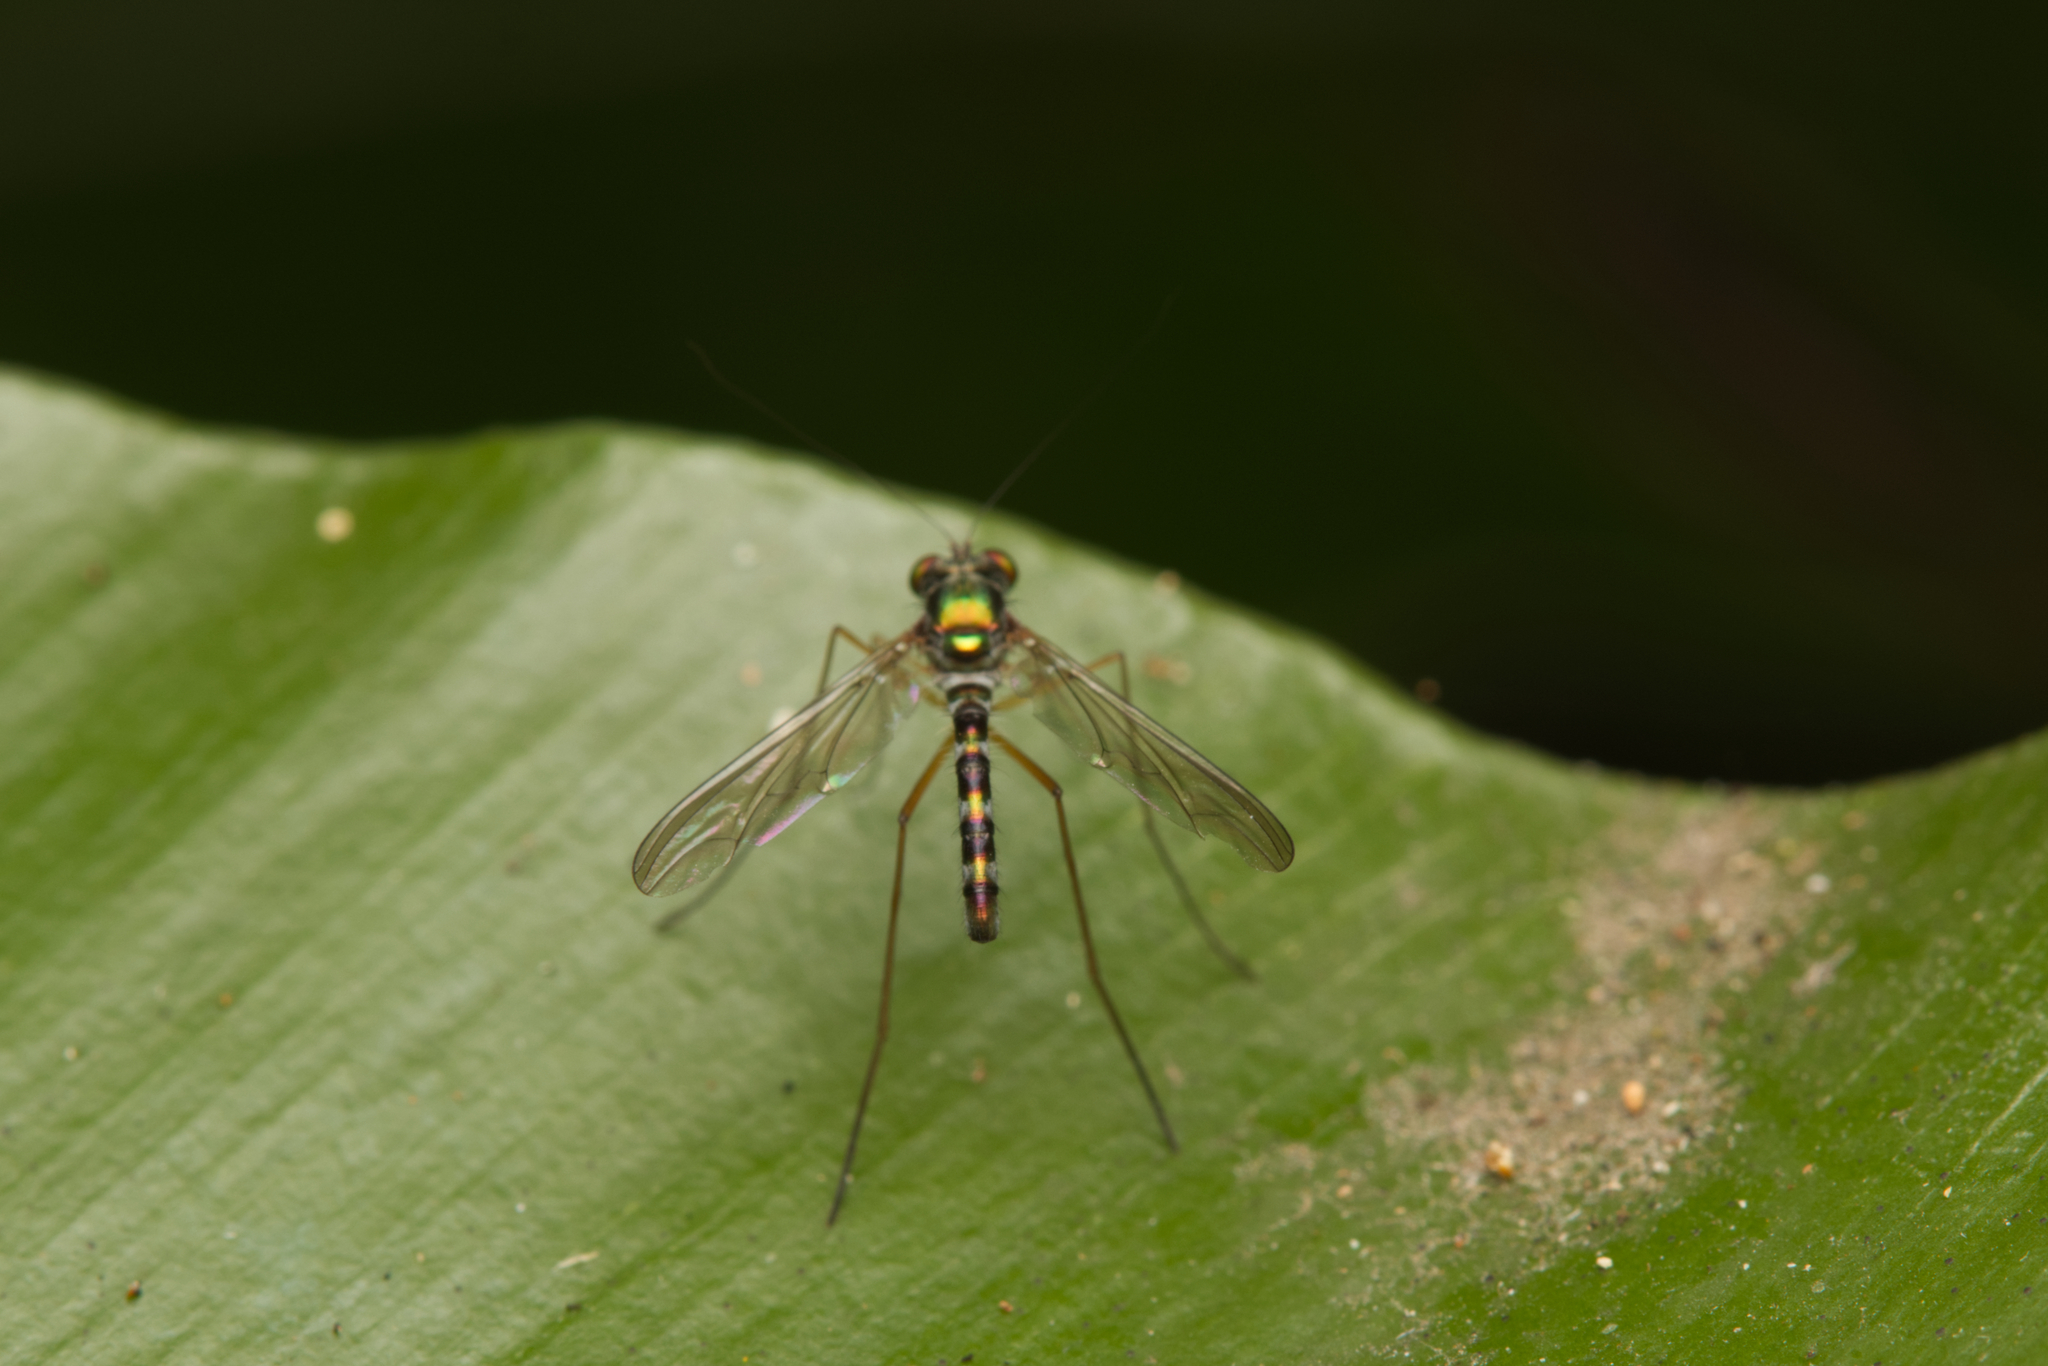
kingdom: Animalia
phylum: Arthropoda
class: Insecta
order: Diptera
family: Dolichopodidae
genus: Heteropsilopus
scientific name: Heteropsilopus meensis
